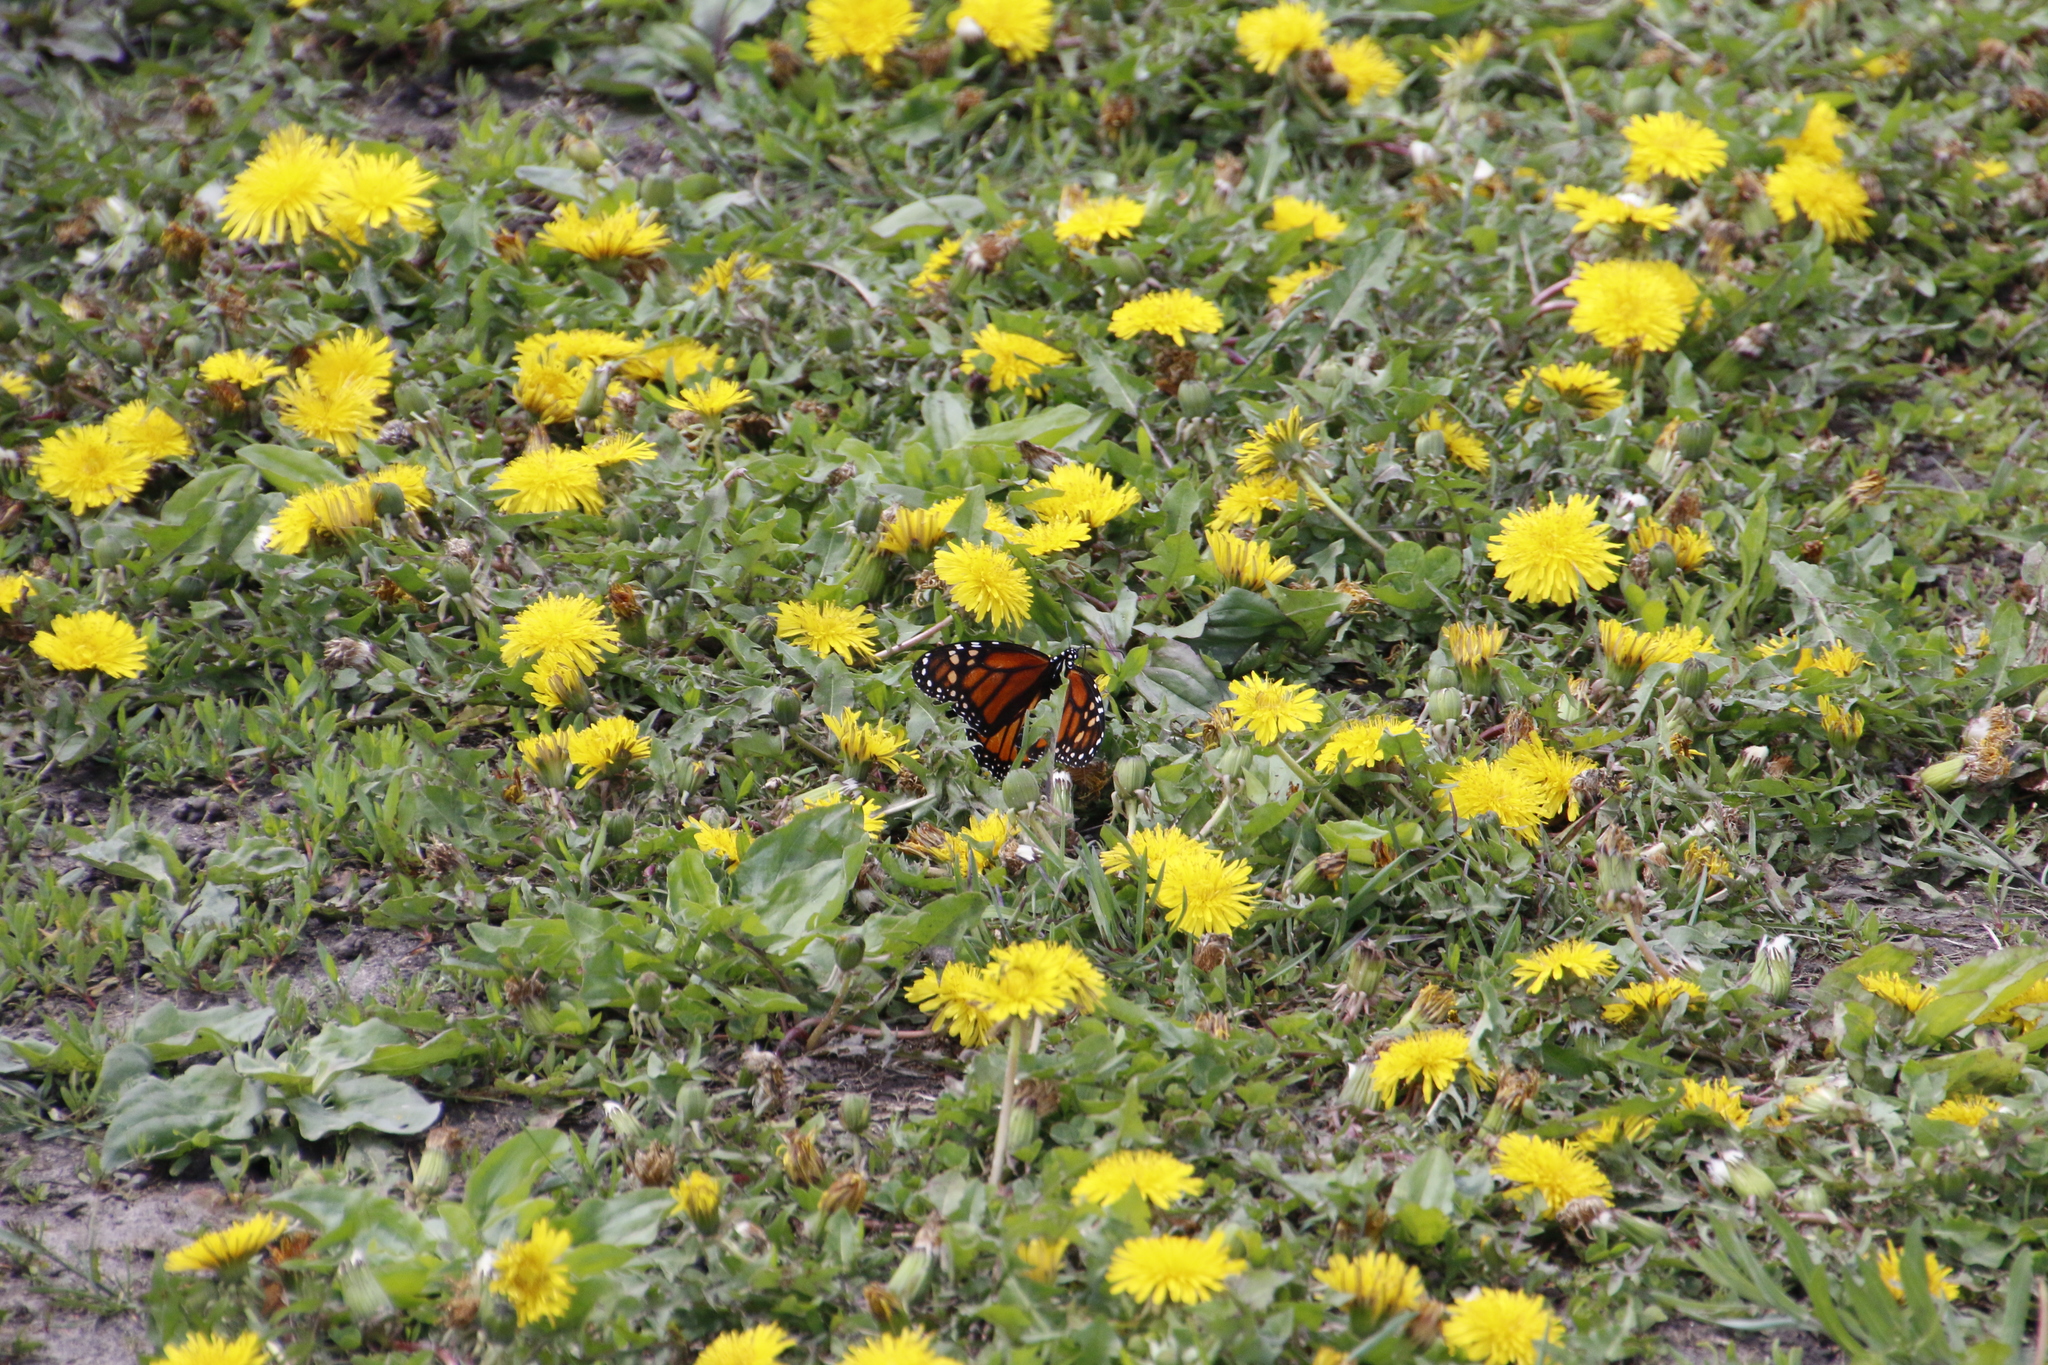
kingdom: Animalia
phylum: Arthropoda
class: Insecta
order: Lepidoptera
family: Nymphalidae
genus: Danaus
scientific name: Danaus plexippus
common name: Monarch
